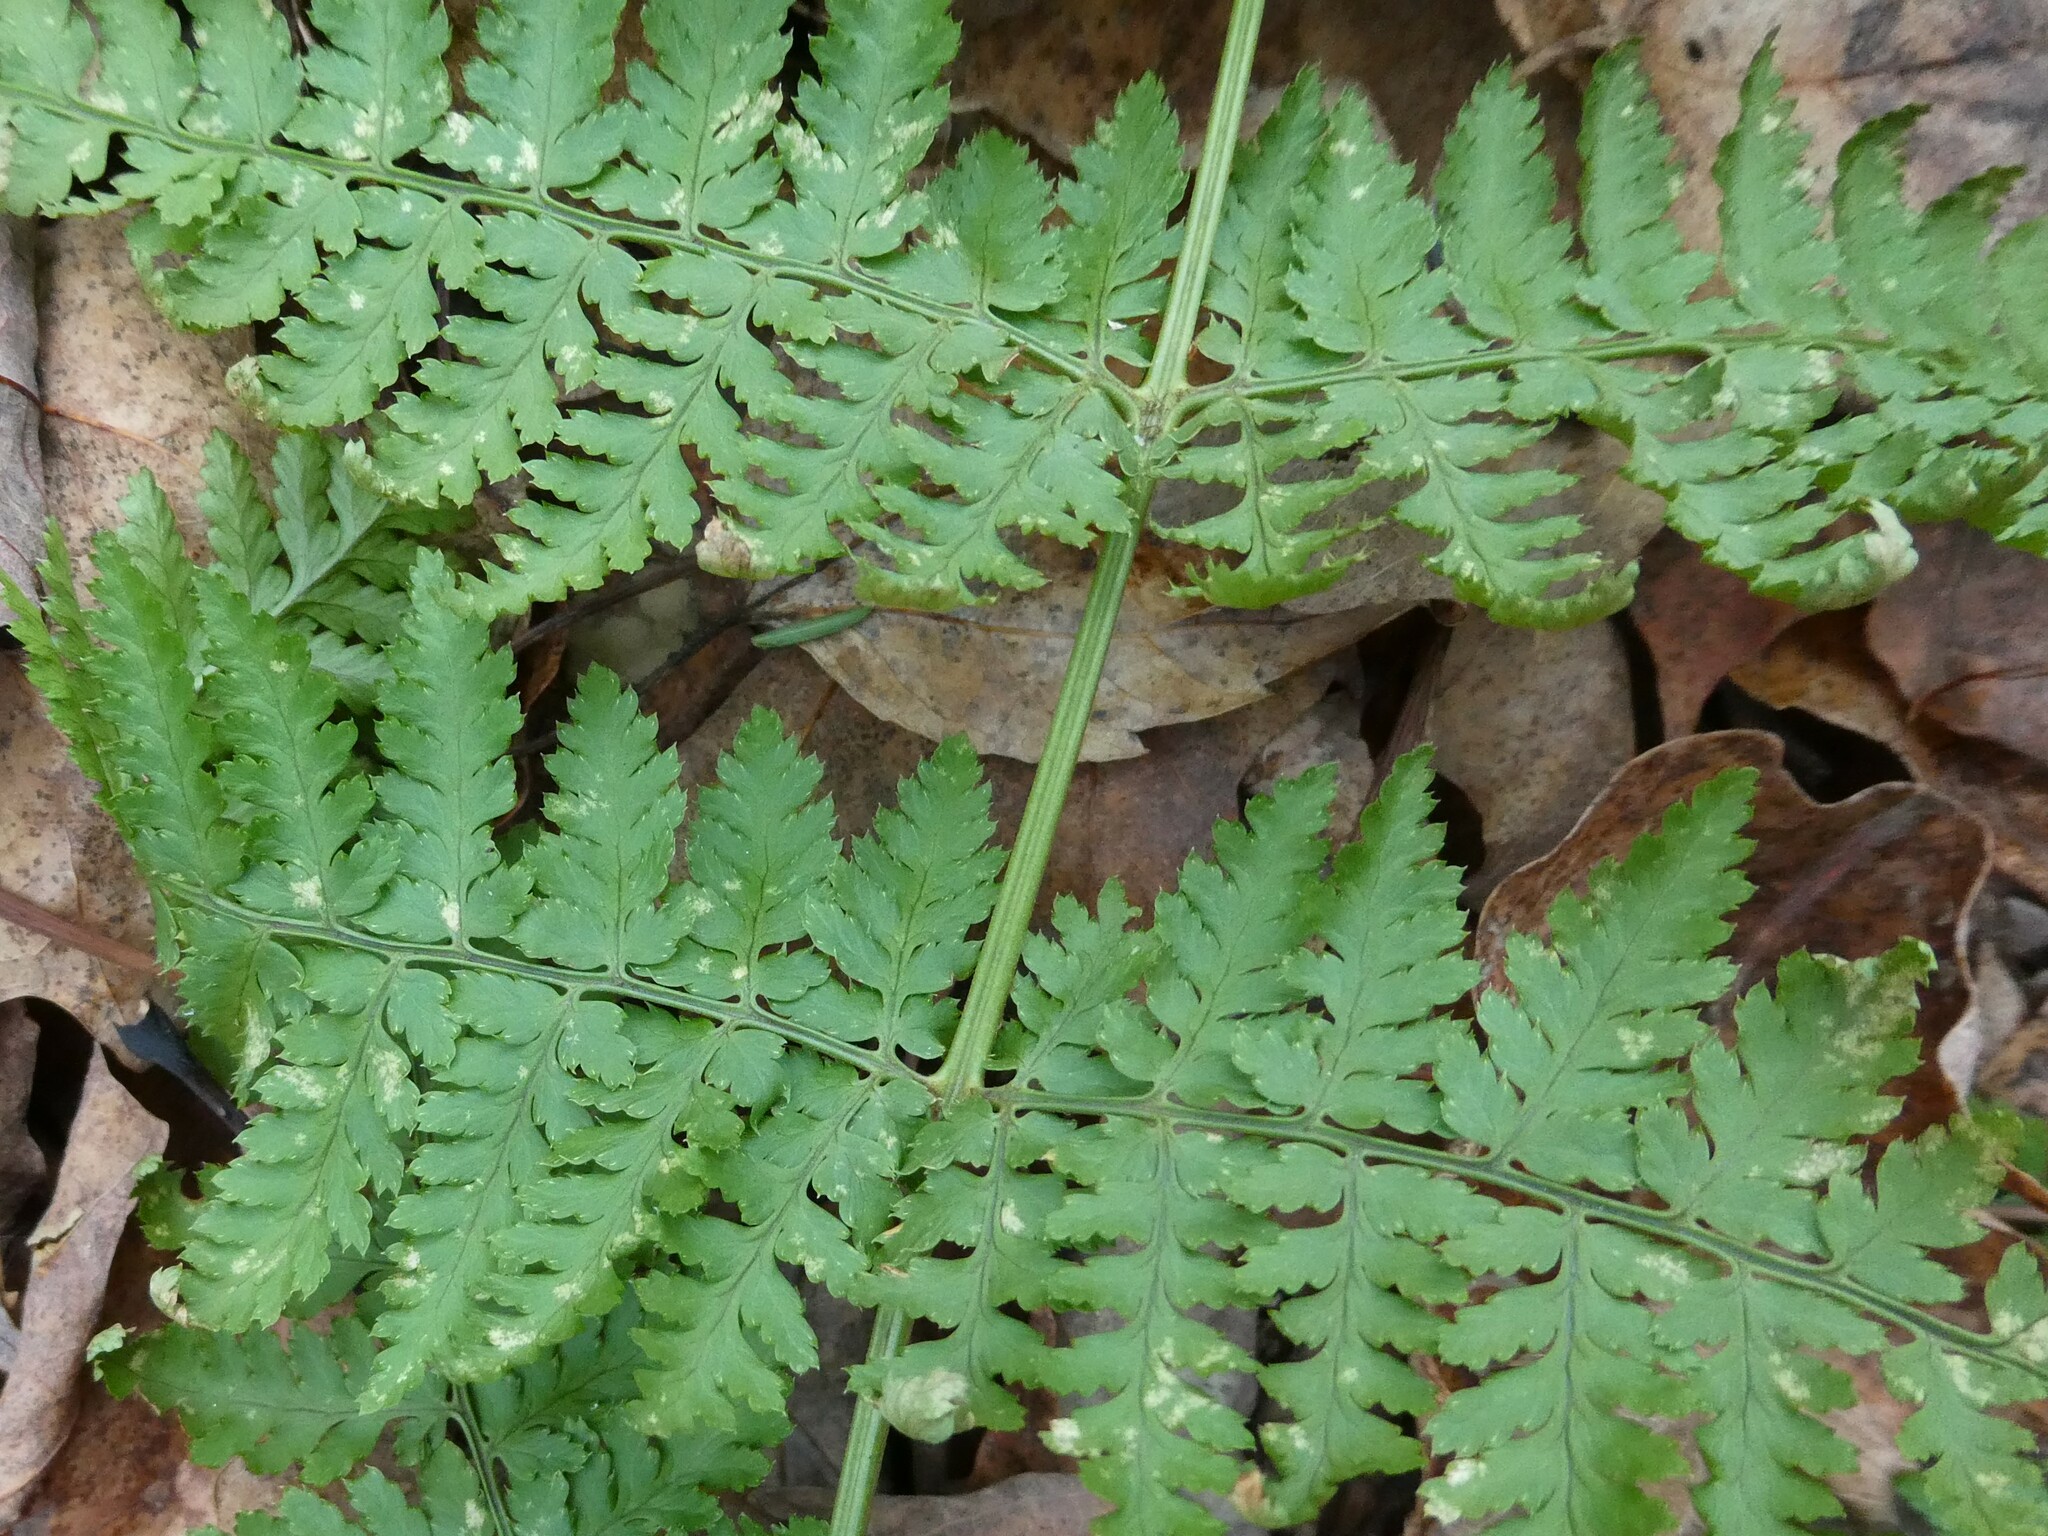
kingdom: Plantae
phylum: Tracheophyta
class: Polypodiopsida
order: Polypodiales
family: Dryopteridaceae
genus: Dryopteris
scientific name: Dryopteris intermedia
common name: Evergreen wood fern
